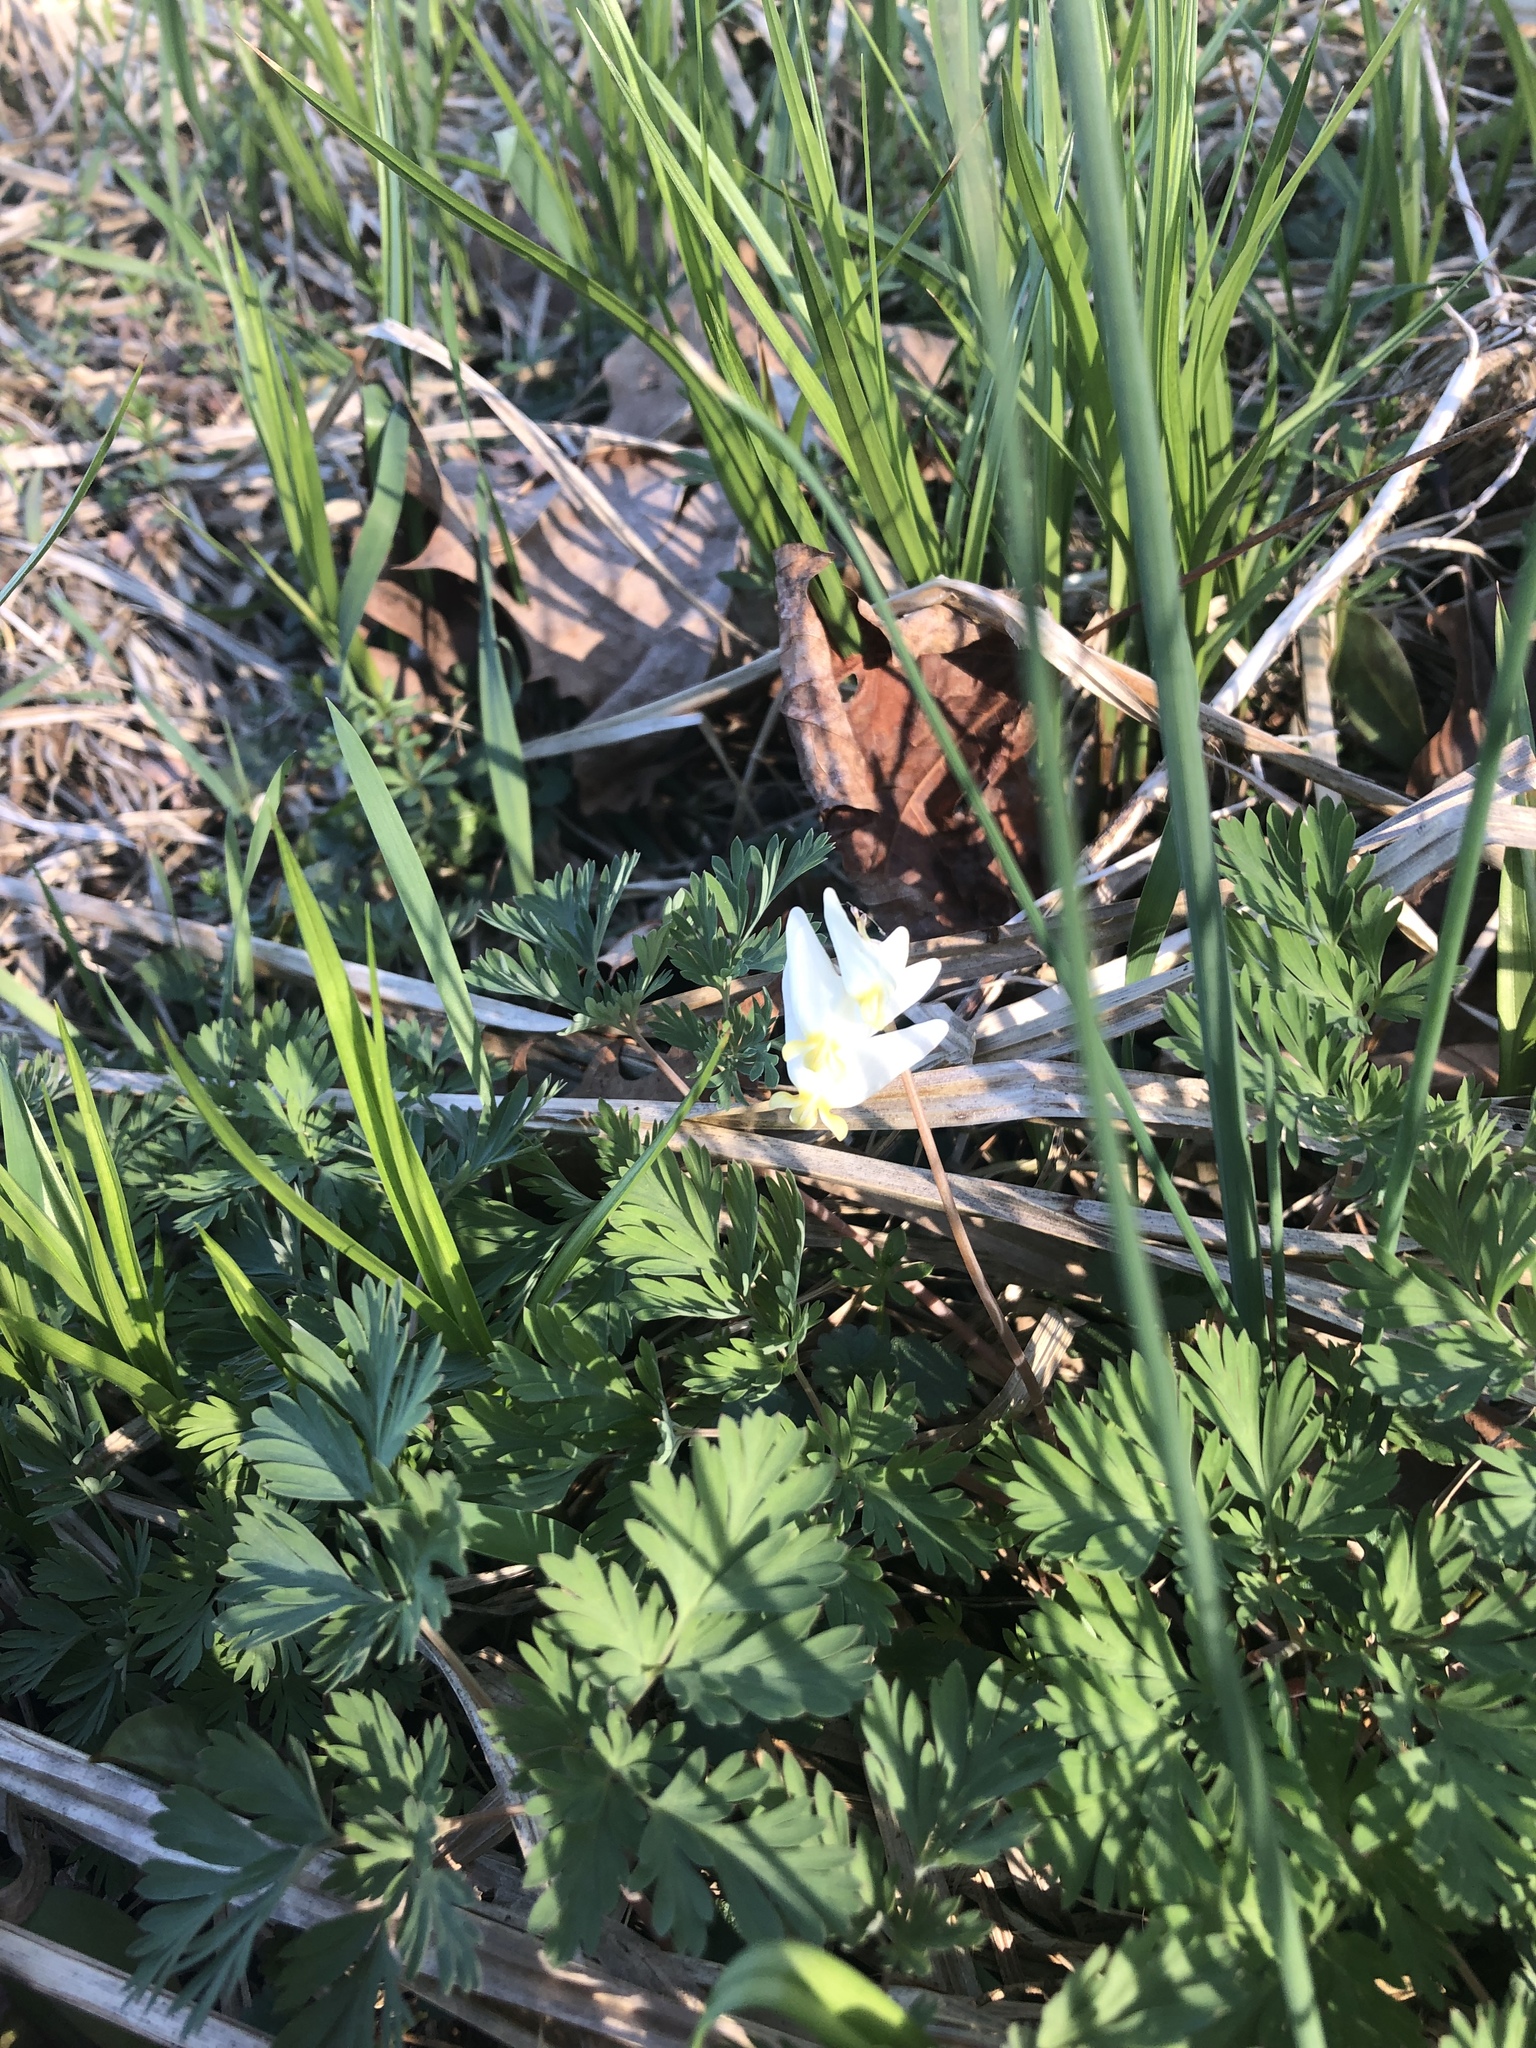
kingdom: Plantae
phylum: Tracheophyta
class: Magnoliopsida
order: Ranunculales
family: Papaveraceae
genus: Dicentra
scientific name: Dicentra cucullaria
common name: Dutchman's breeches
